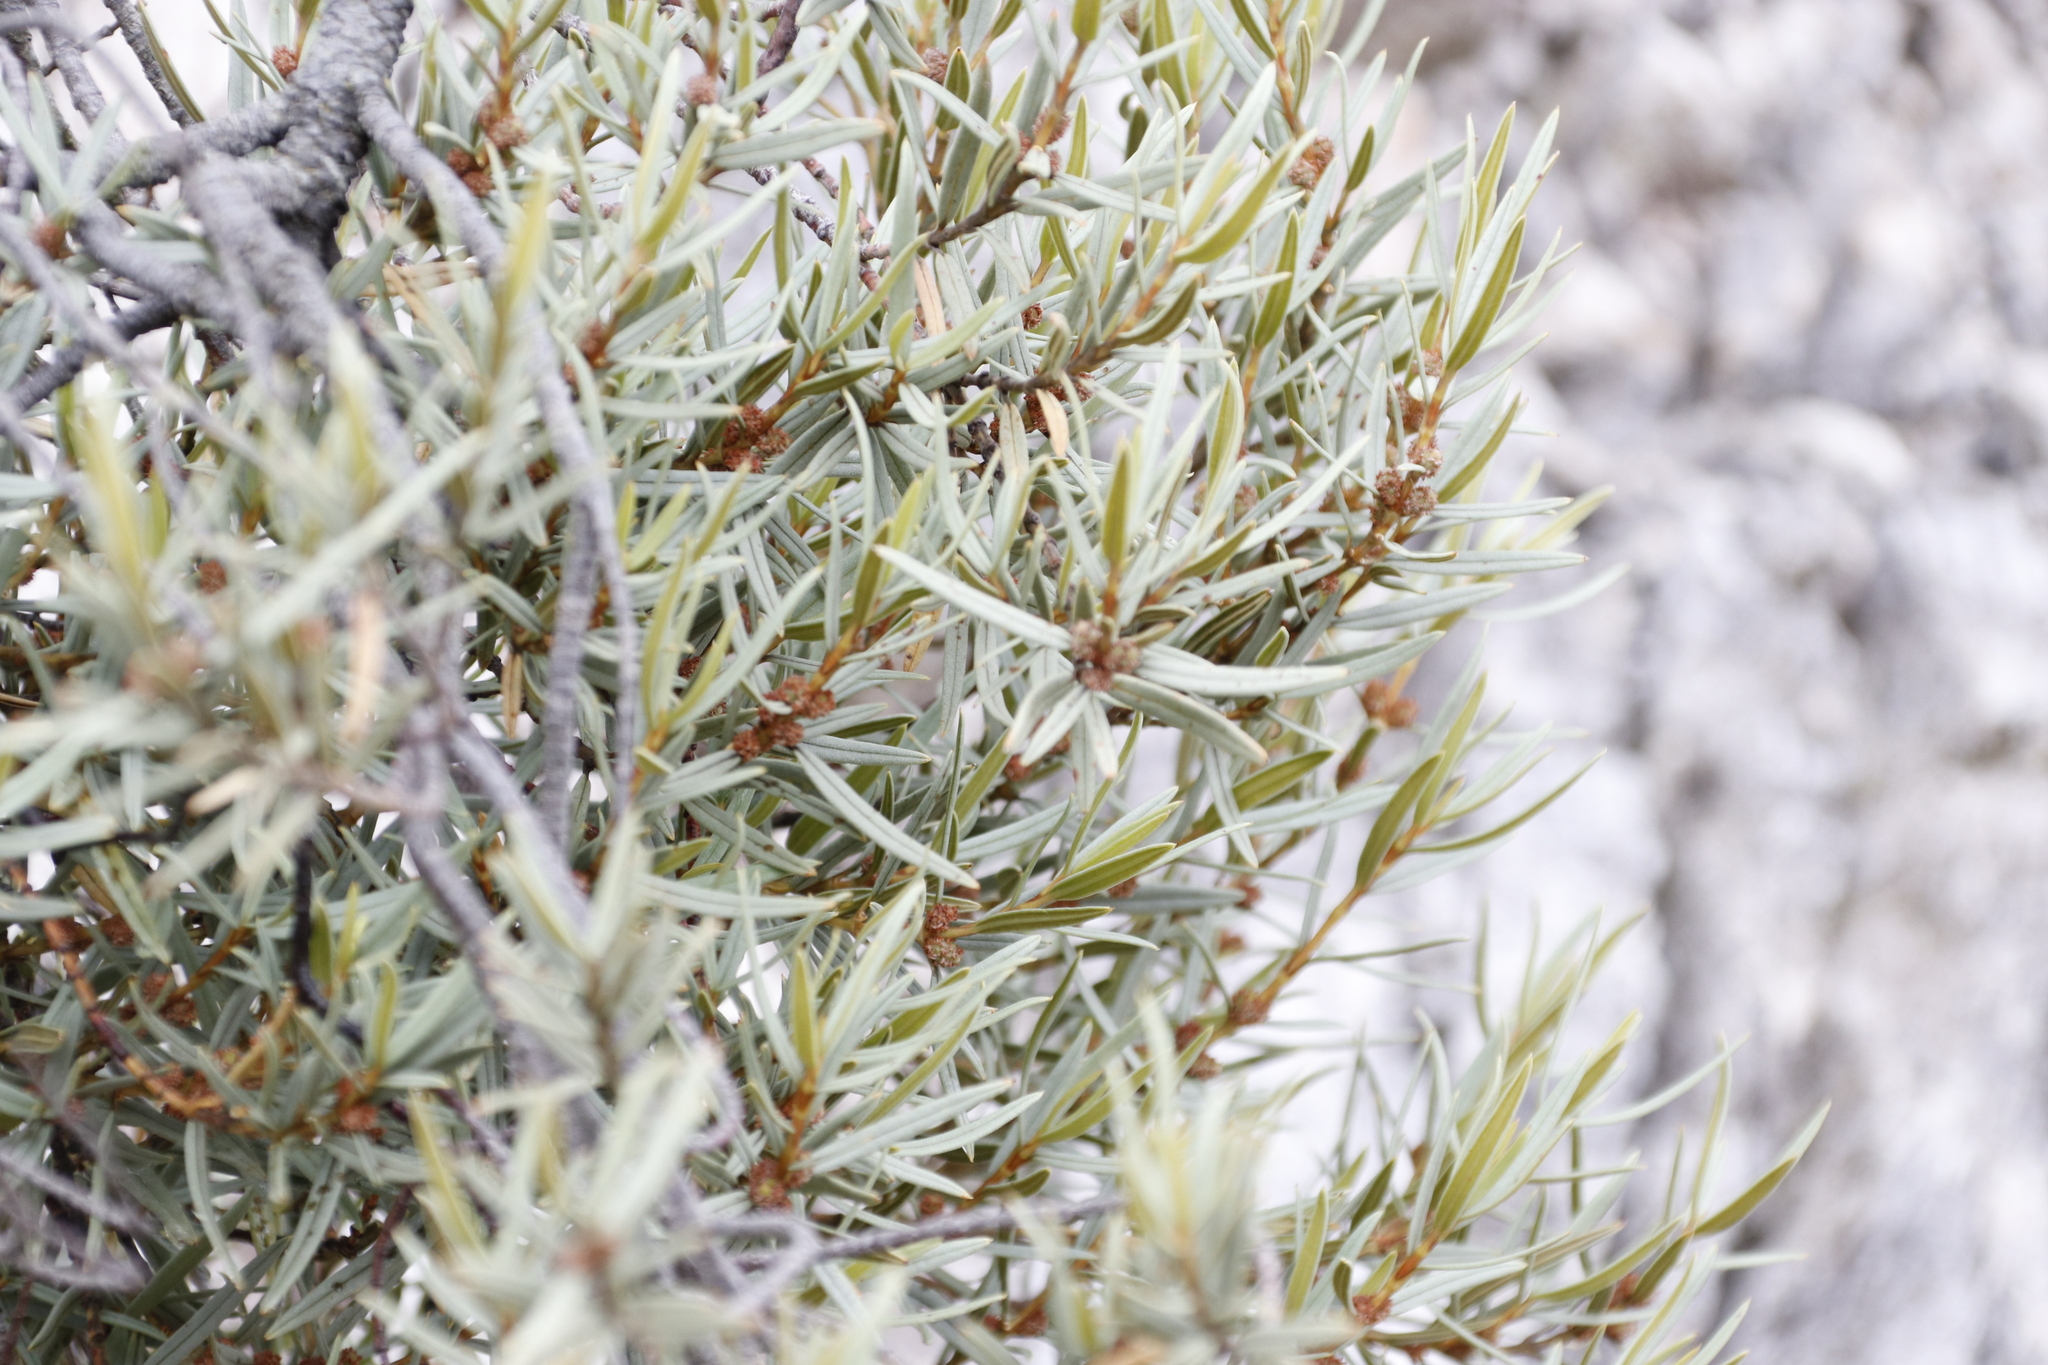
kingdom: Plantae
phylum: Tracheophyta
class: Magnoliopsida
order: Cornales
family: Grubbiaceae
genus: Grubbia
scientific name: Grubbia tomentosa
